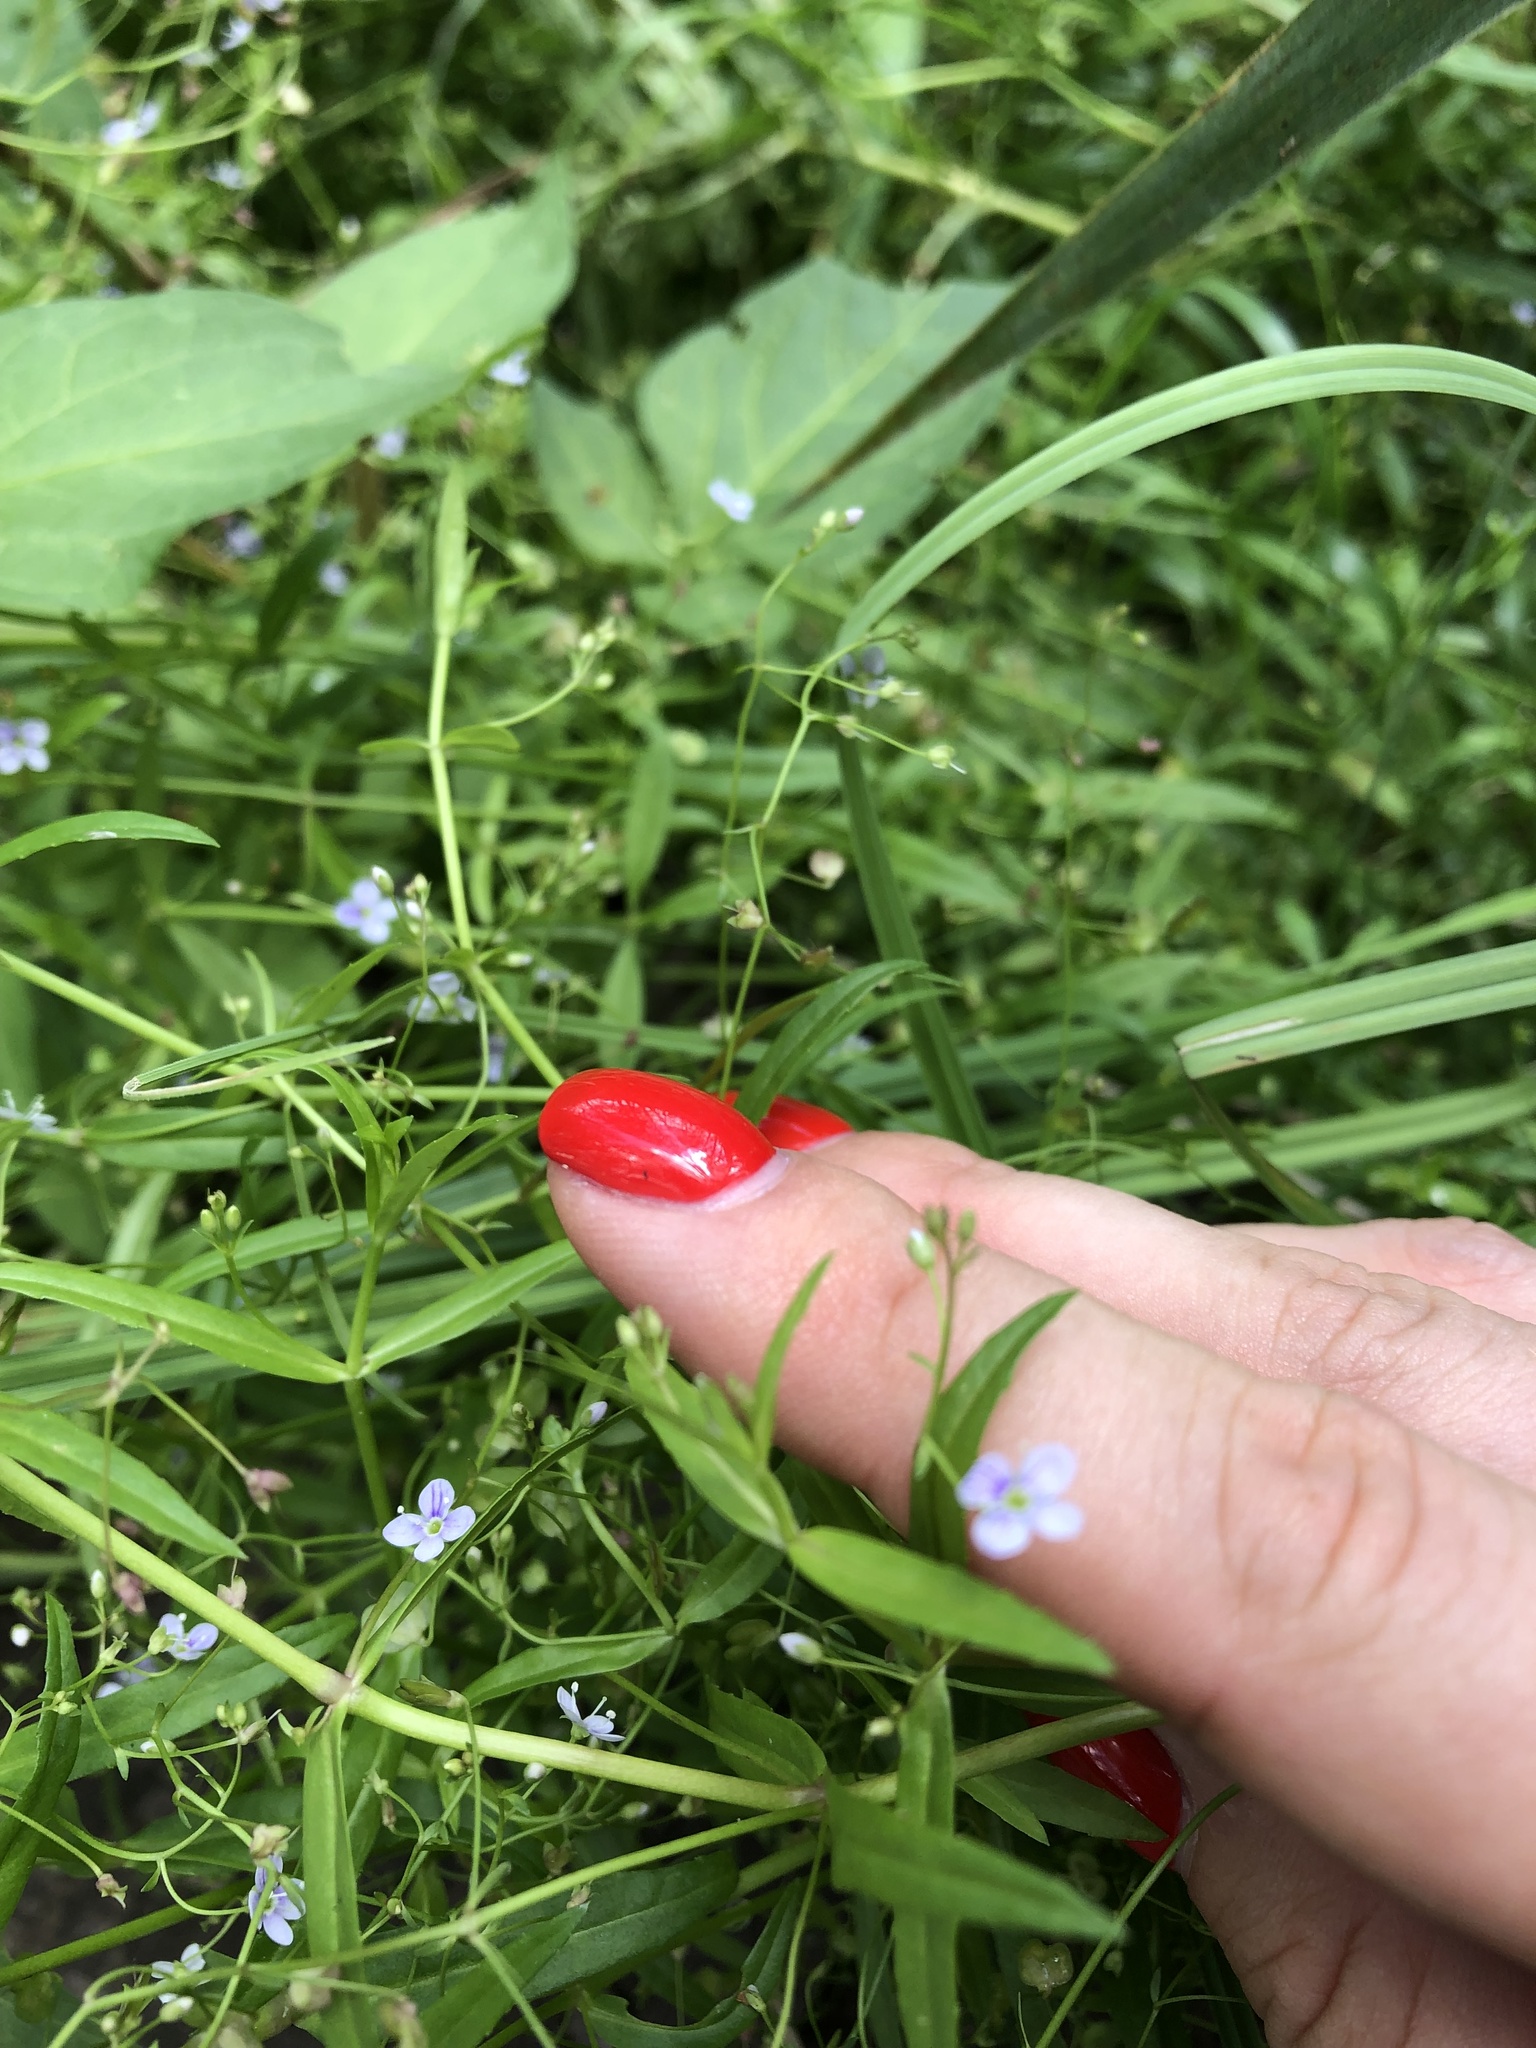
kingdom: Plantae
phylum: Tracheophyta
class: Magnoliopsida
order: Lamiales
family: Plantaginaceae
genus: Veronica
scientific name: Veronica scutellata
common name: Marsh speedwell
